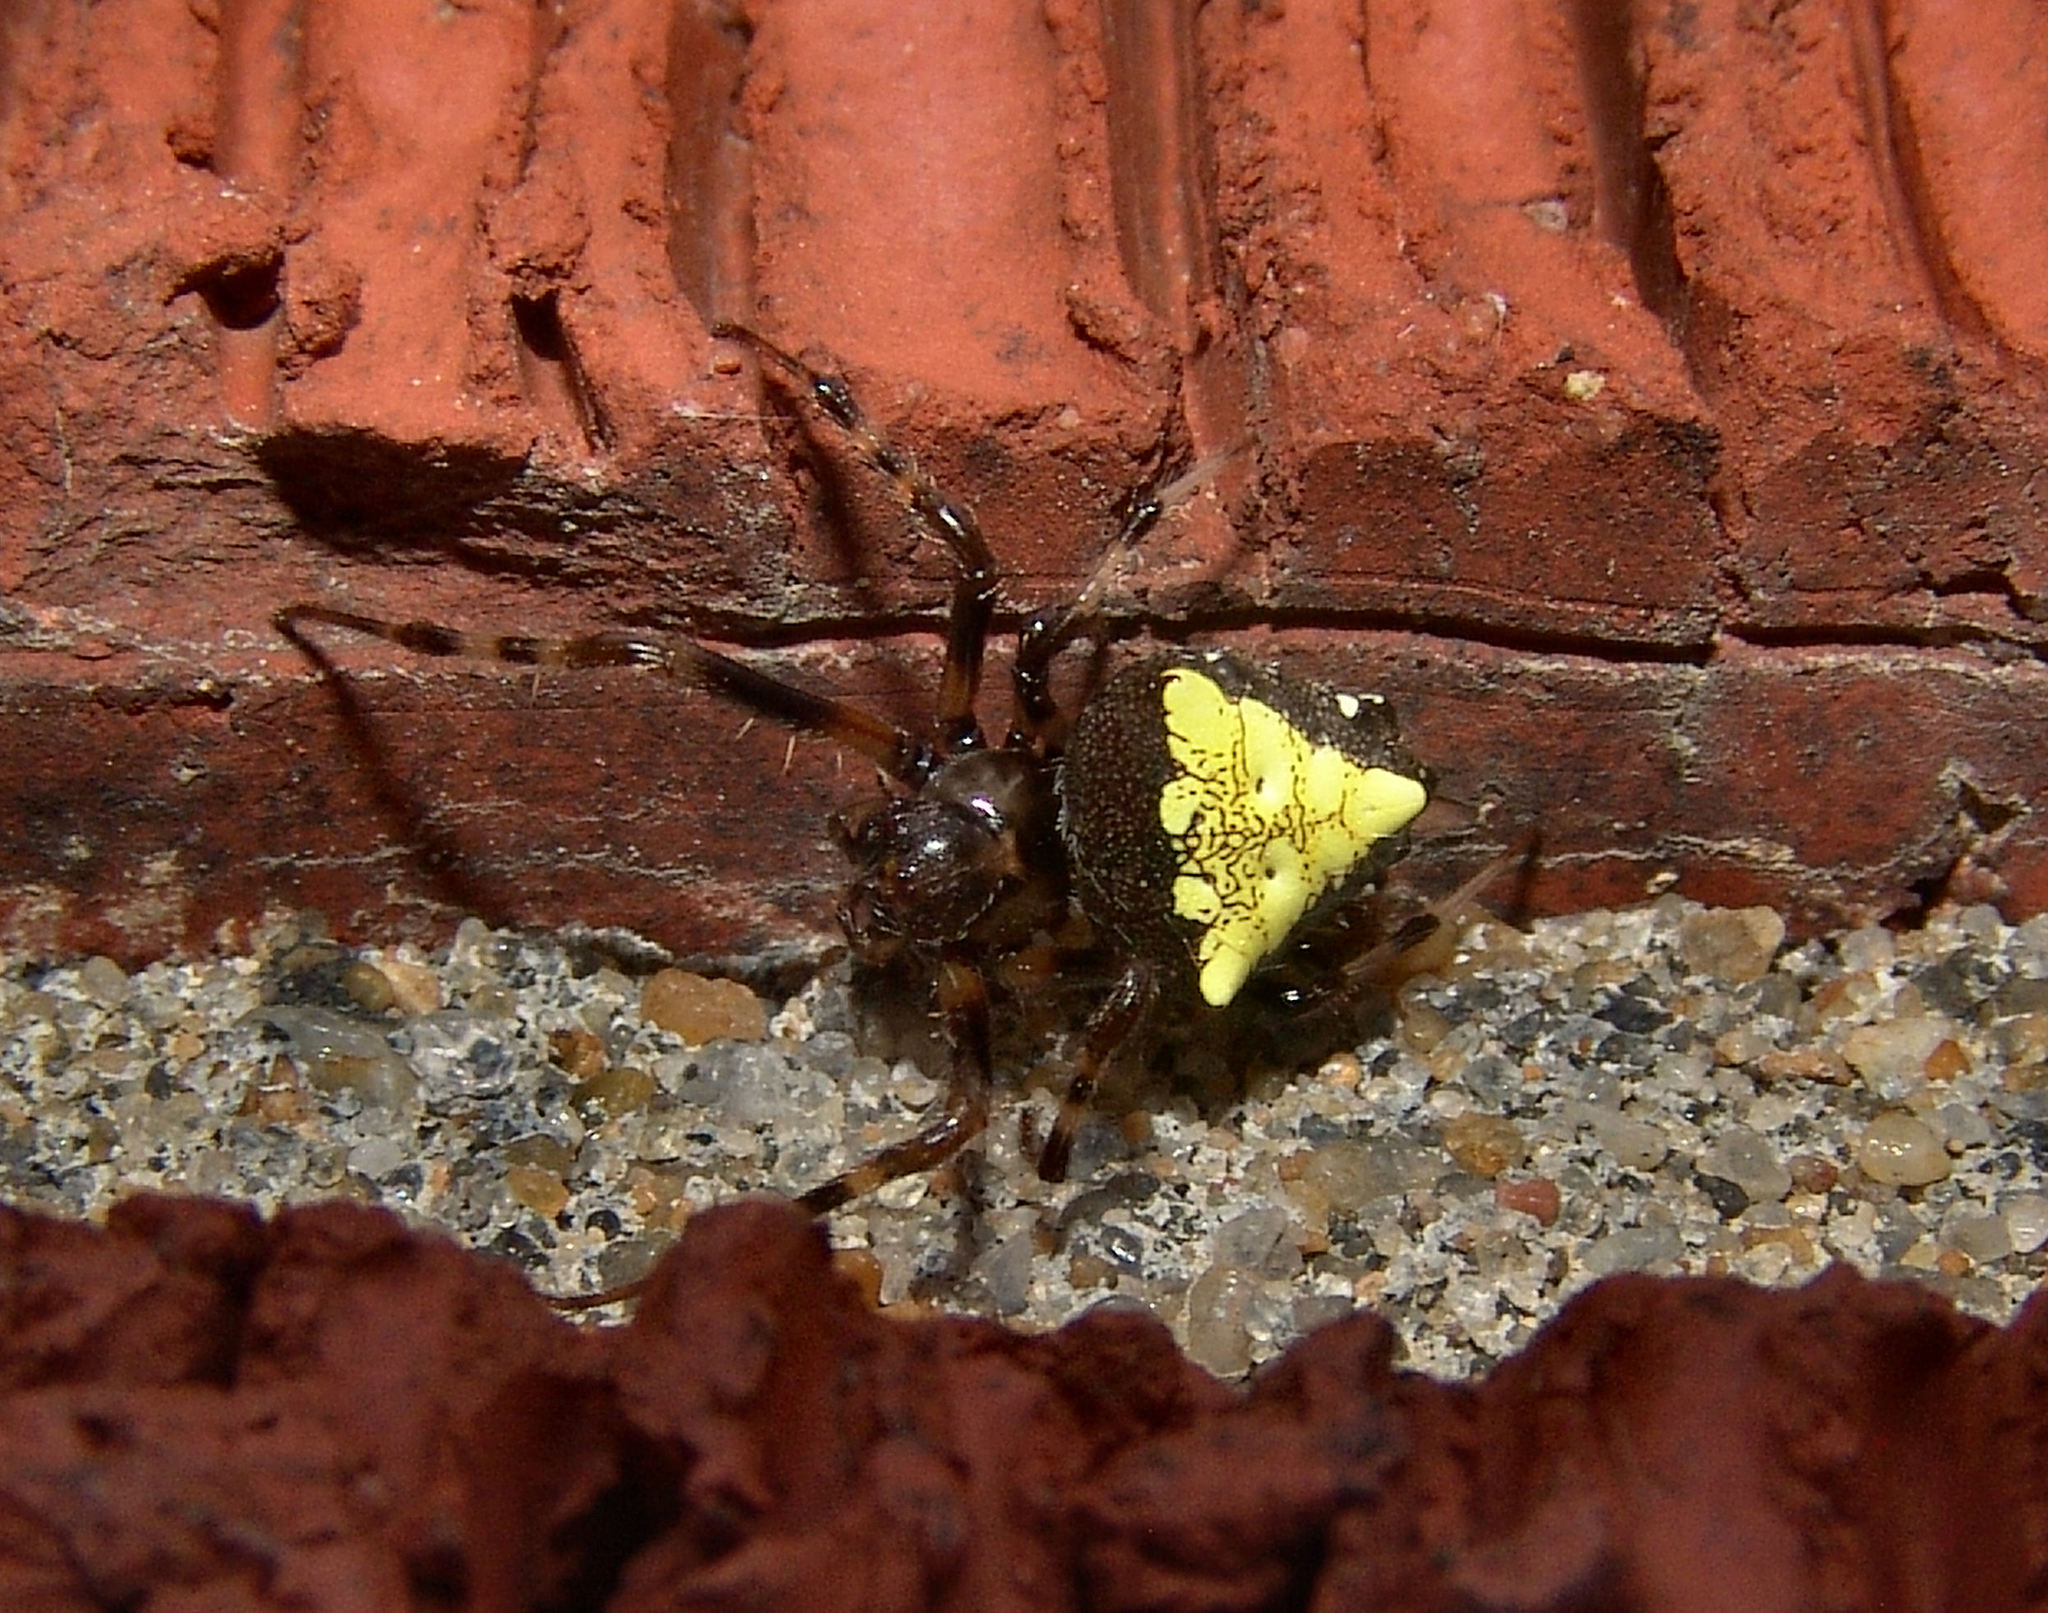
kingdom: Animalia
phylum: Arthropoda
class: Arachnida
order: Araneae
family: Araneidae
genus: Verrucosa
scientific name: Verrucosa arenata
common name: Orb weavers
